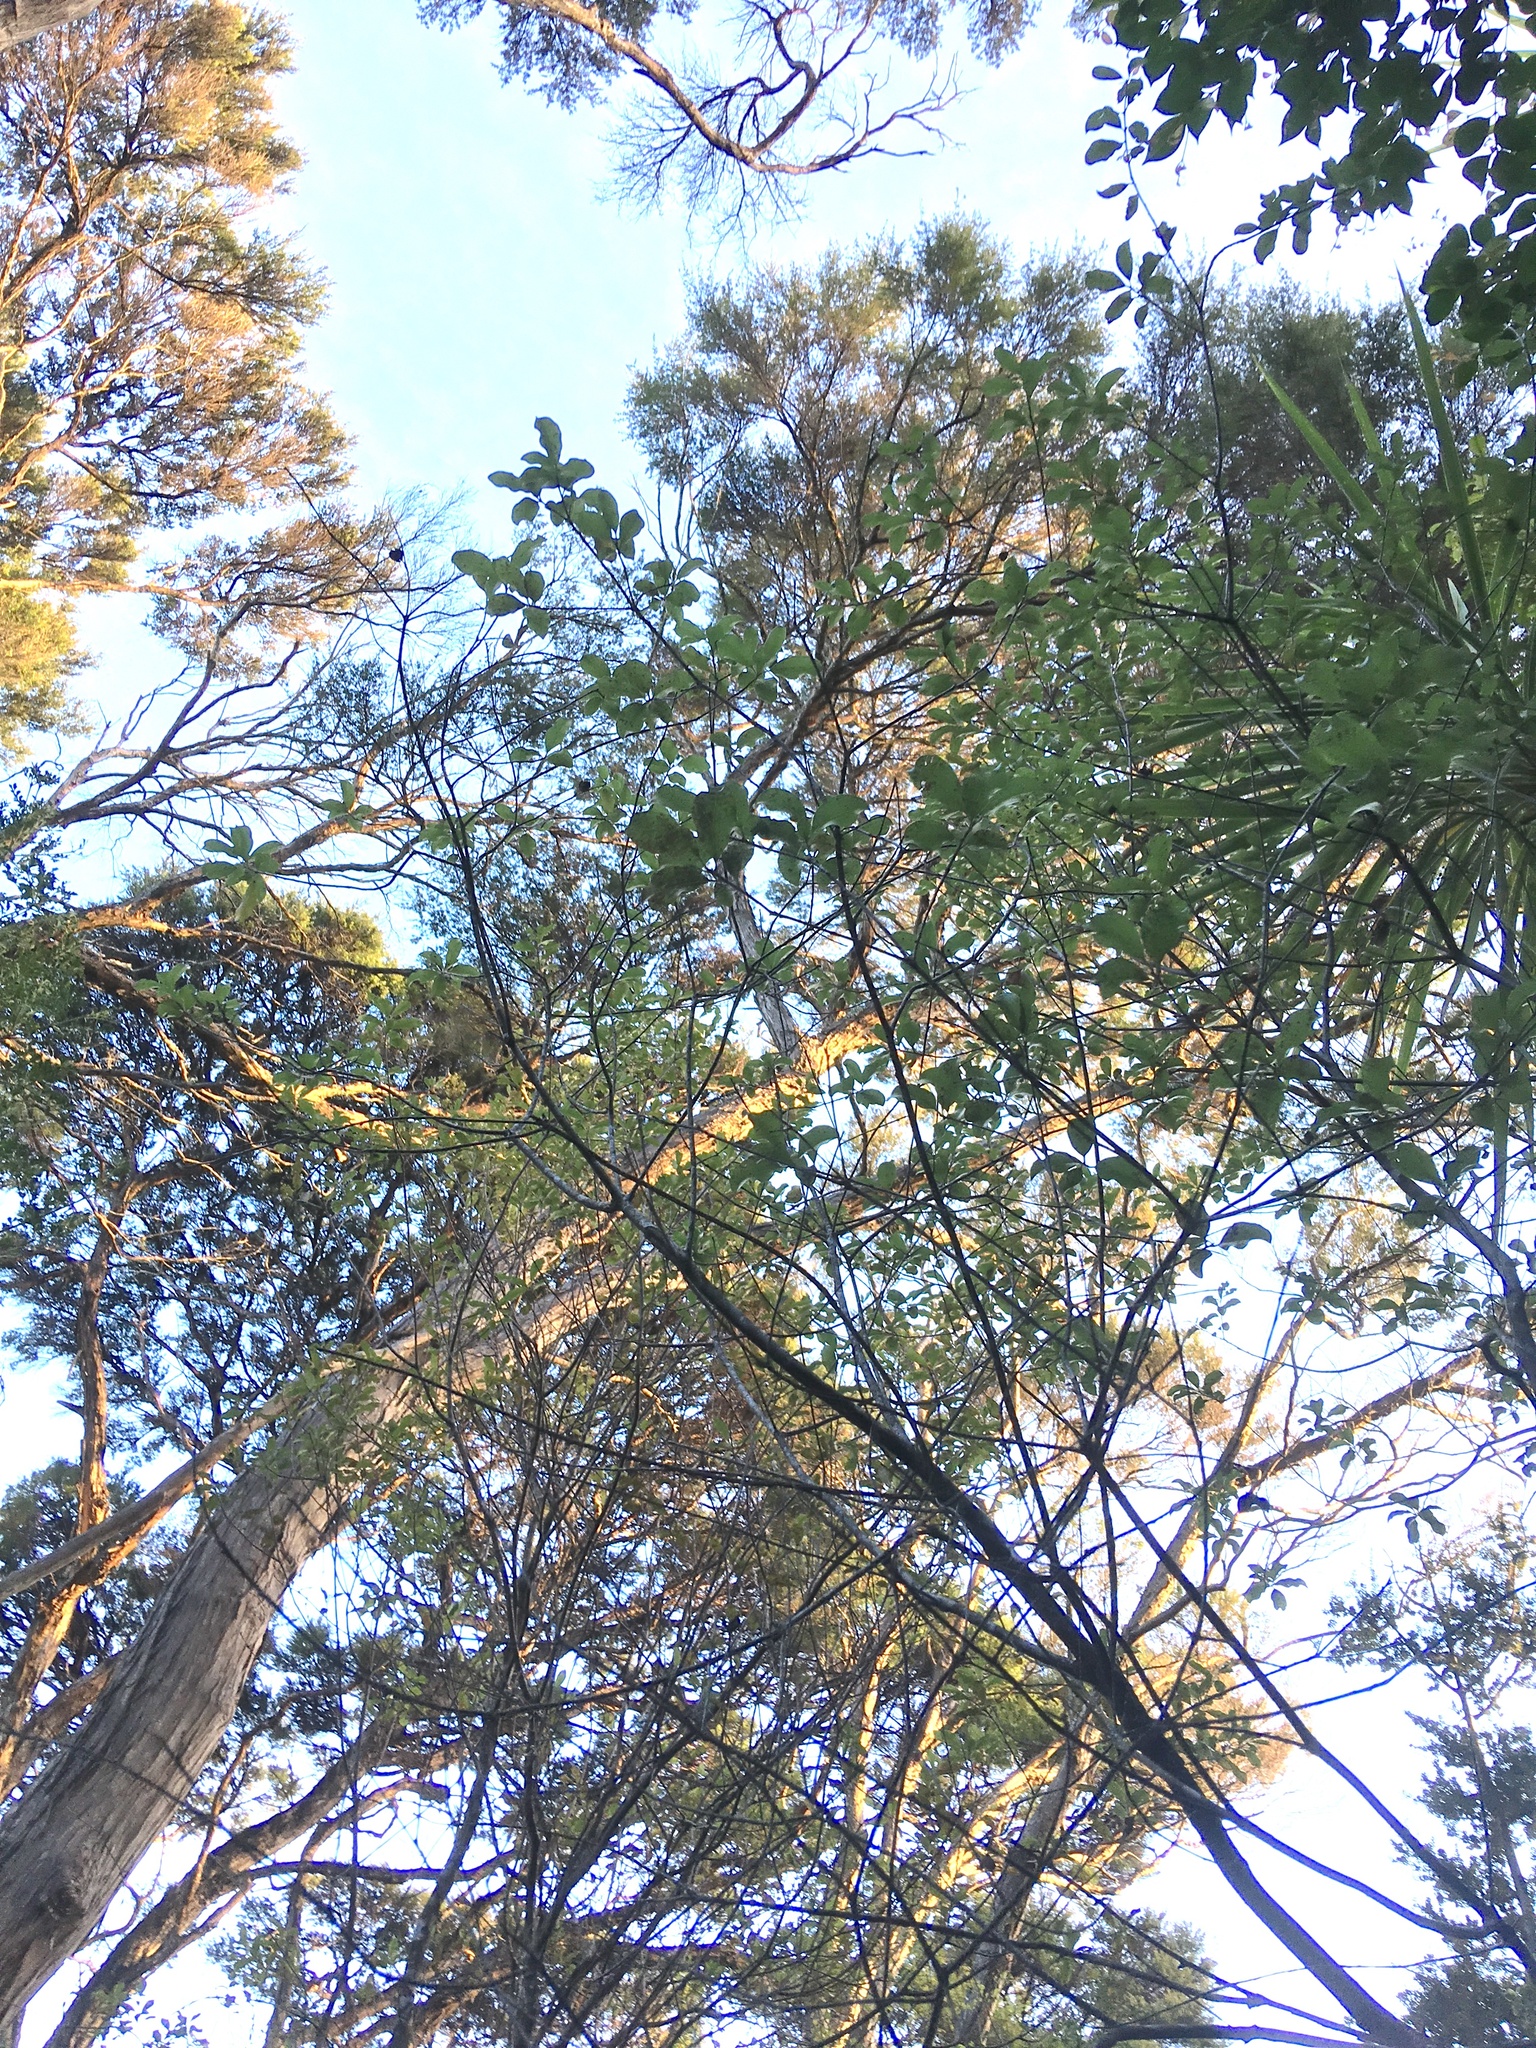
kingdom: Plantae
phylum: Tracheophyta
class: Magnoliopsida
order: Apiales
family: Pittosporaceae
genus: Pittosporum
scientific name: Pittosporum tenuifolium
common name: Kohuhu
